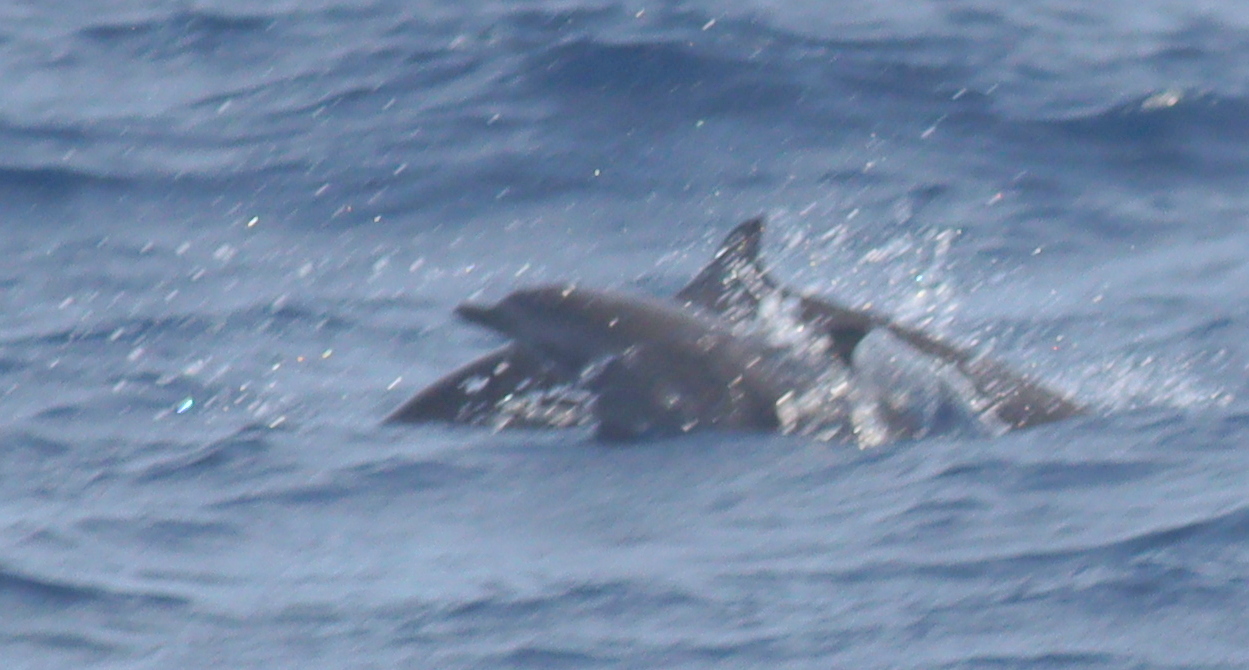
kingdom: Animalia
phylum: Chordata
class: Mammalia
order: Cetacea
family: Delphinidae
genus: Stenella
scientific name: Stenella attenuata
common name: Pantropical spotted dolphin
